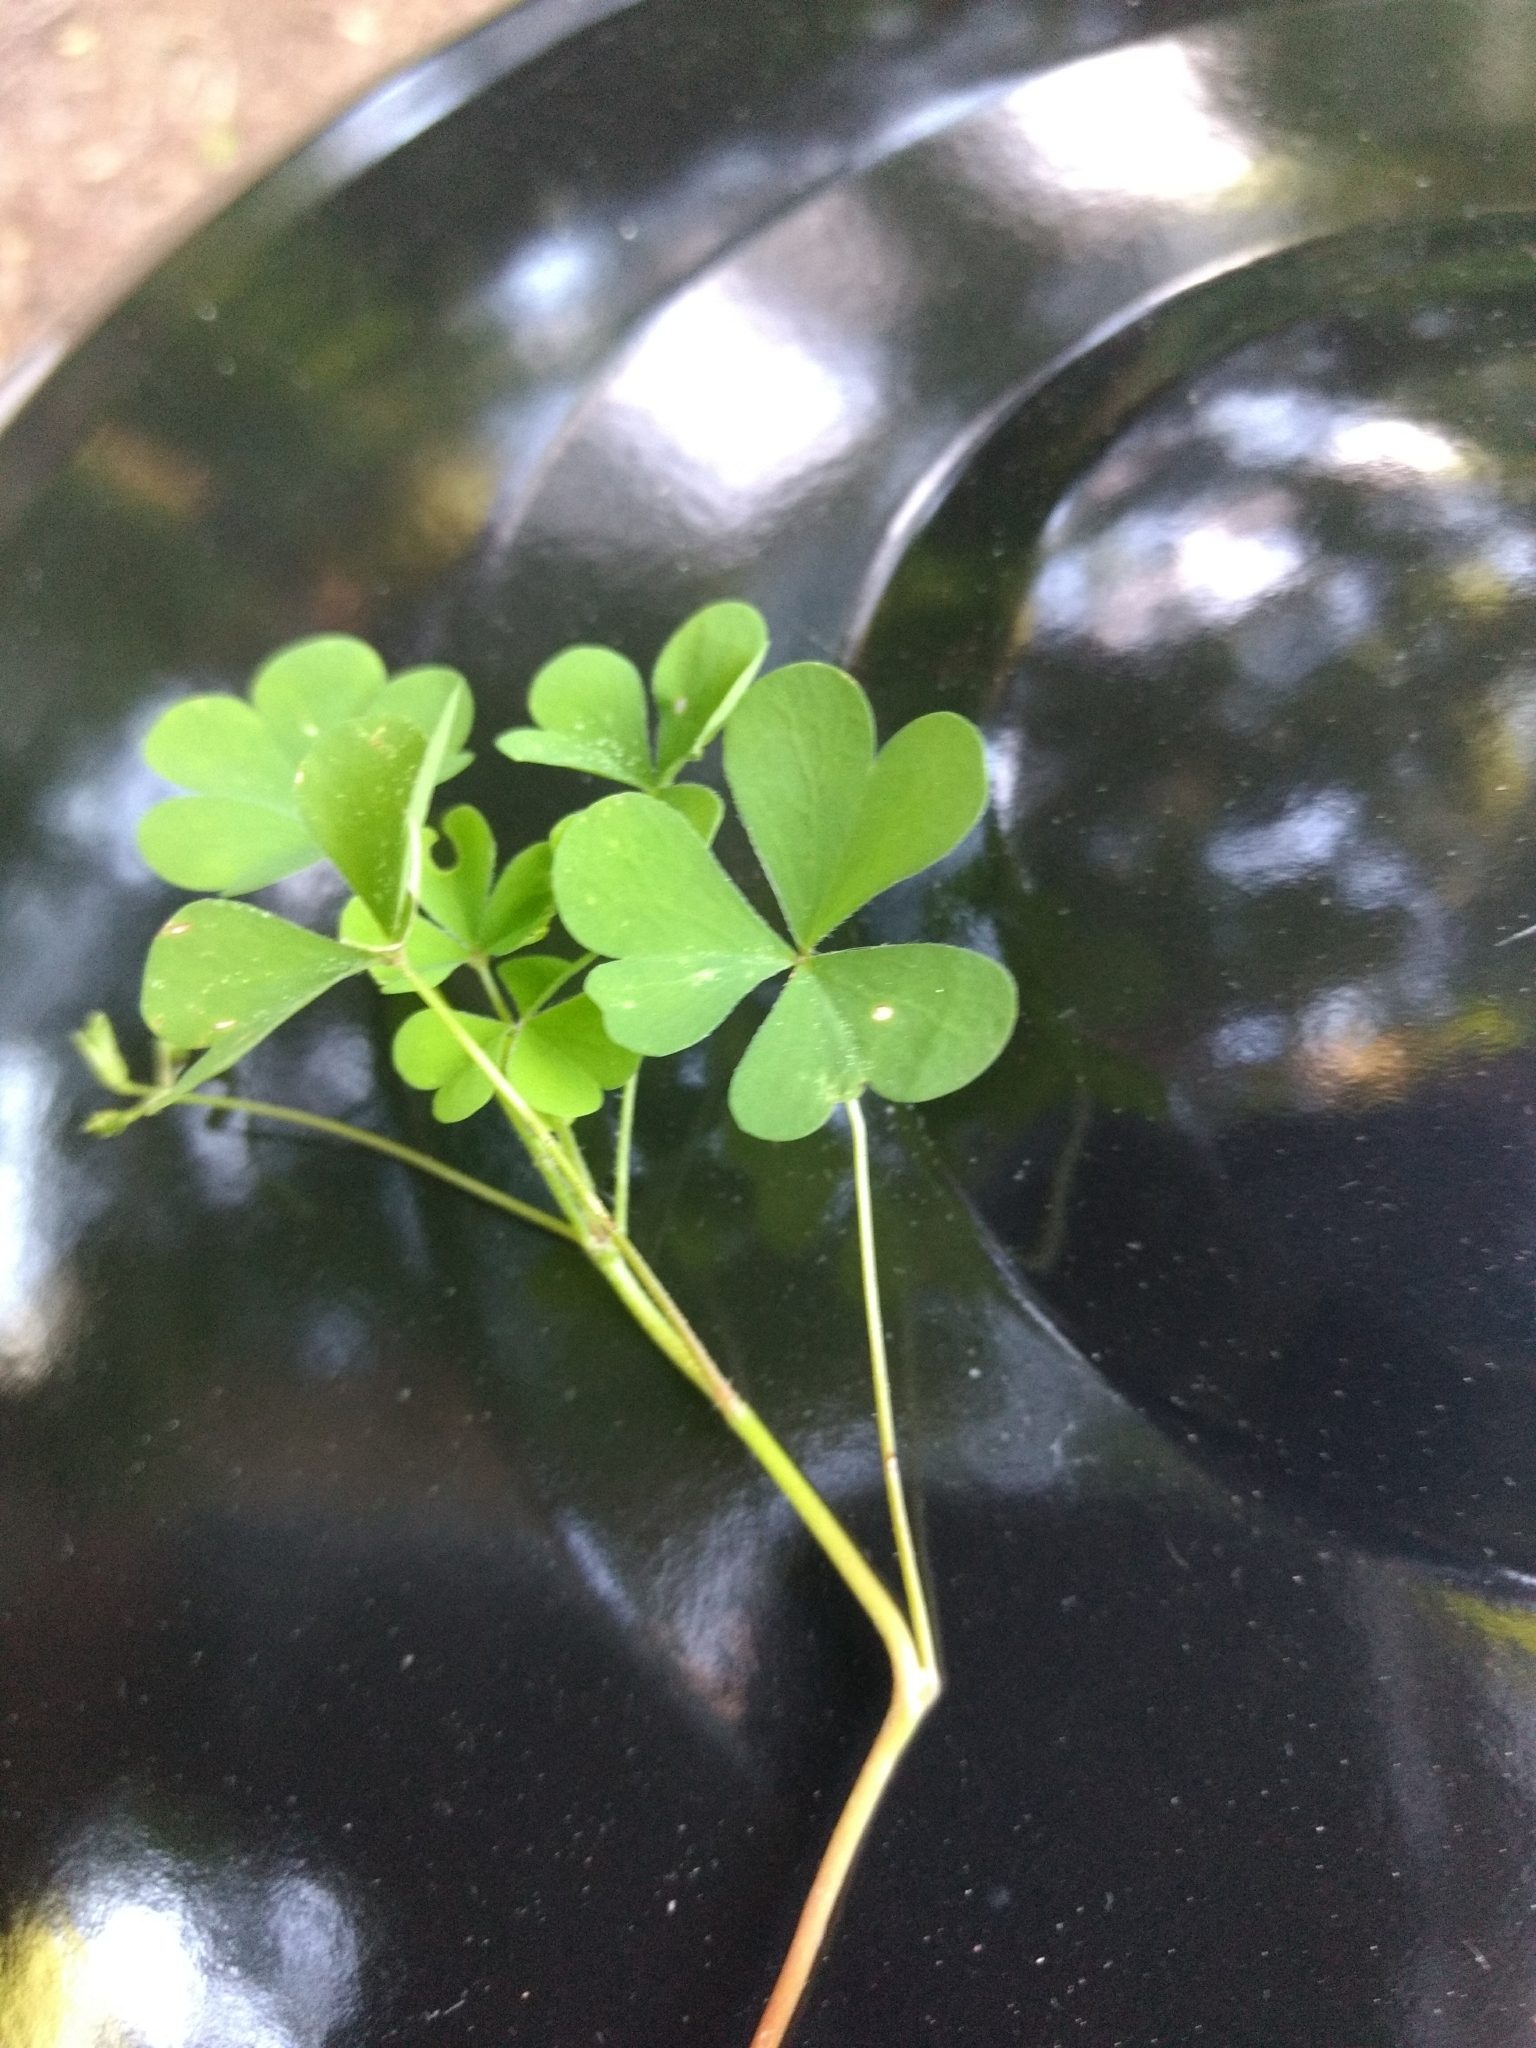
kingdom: Plantae
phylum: Tracheophyta
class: Magnoliopsida
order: Oxalidales
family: Oxalidaceae
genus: Oxalis
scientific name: Oxalis
